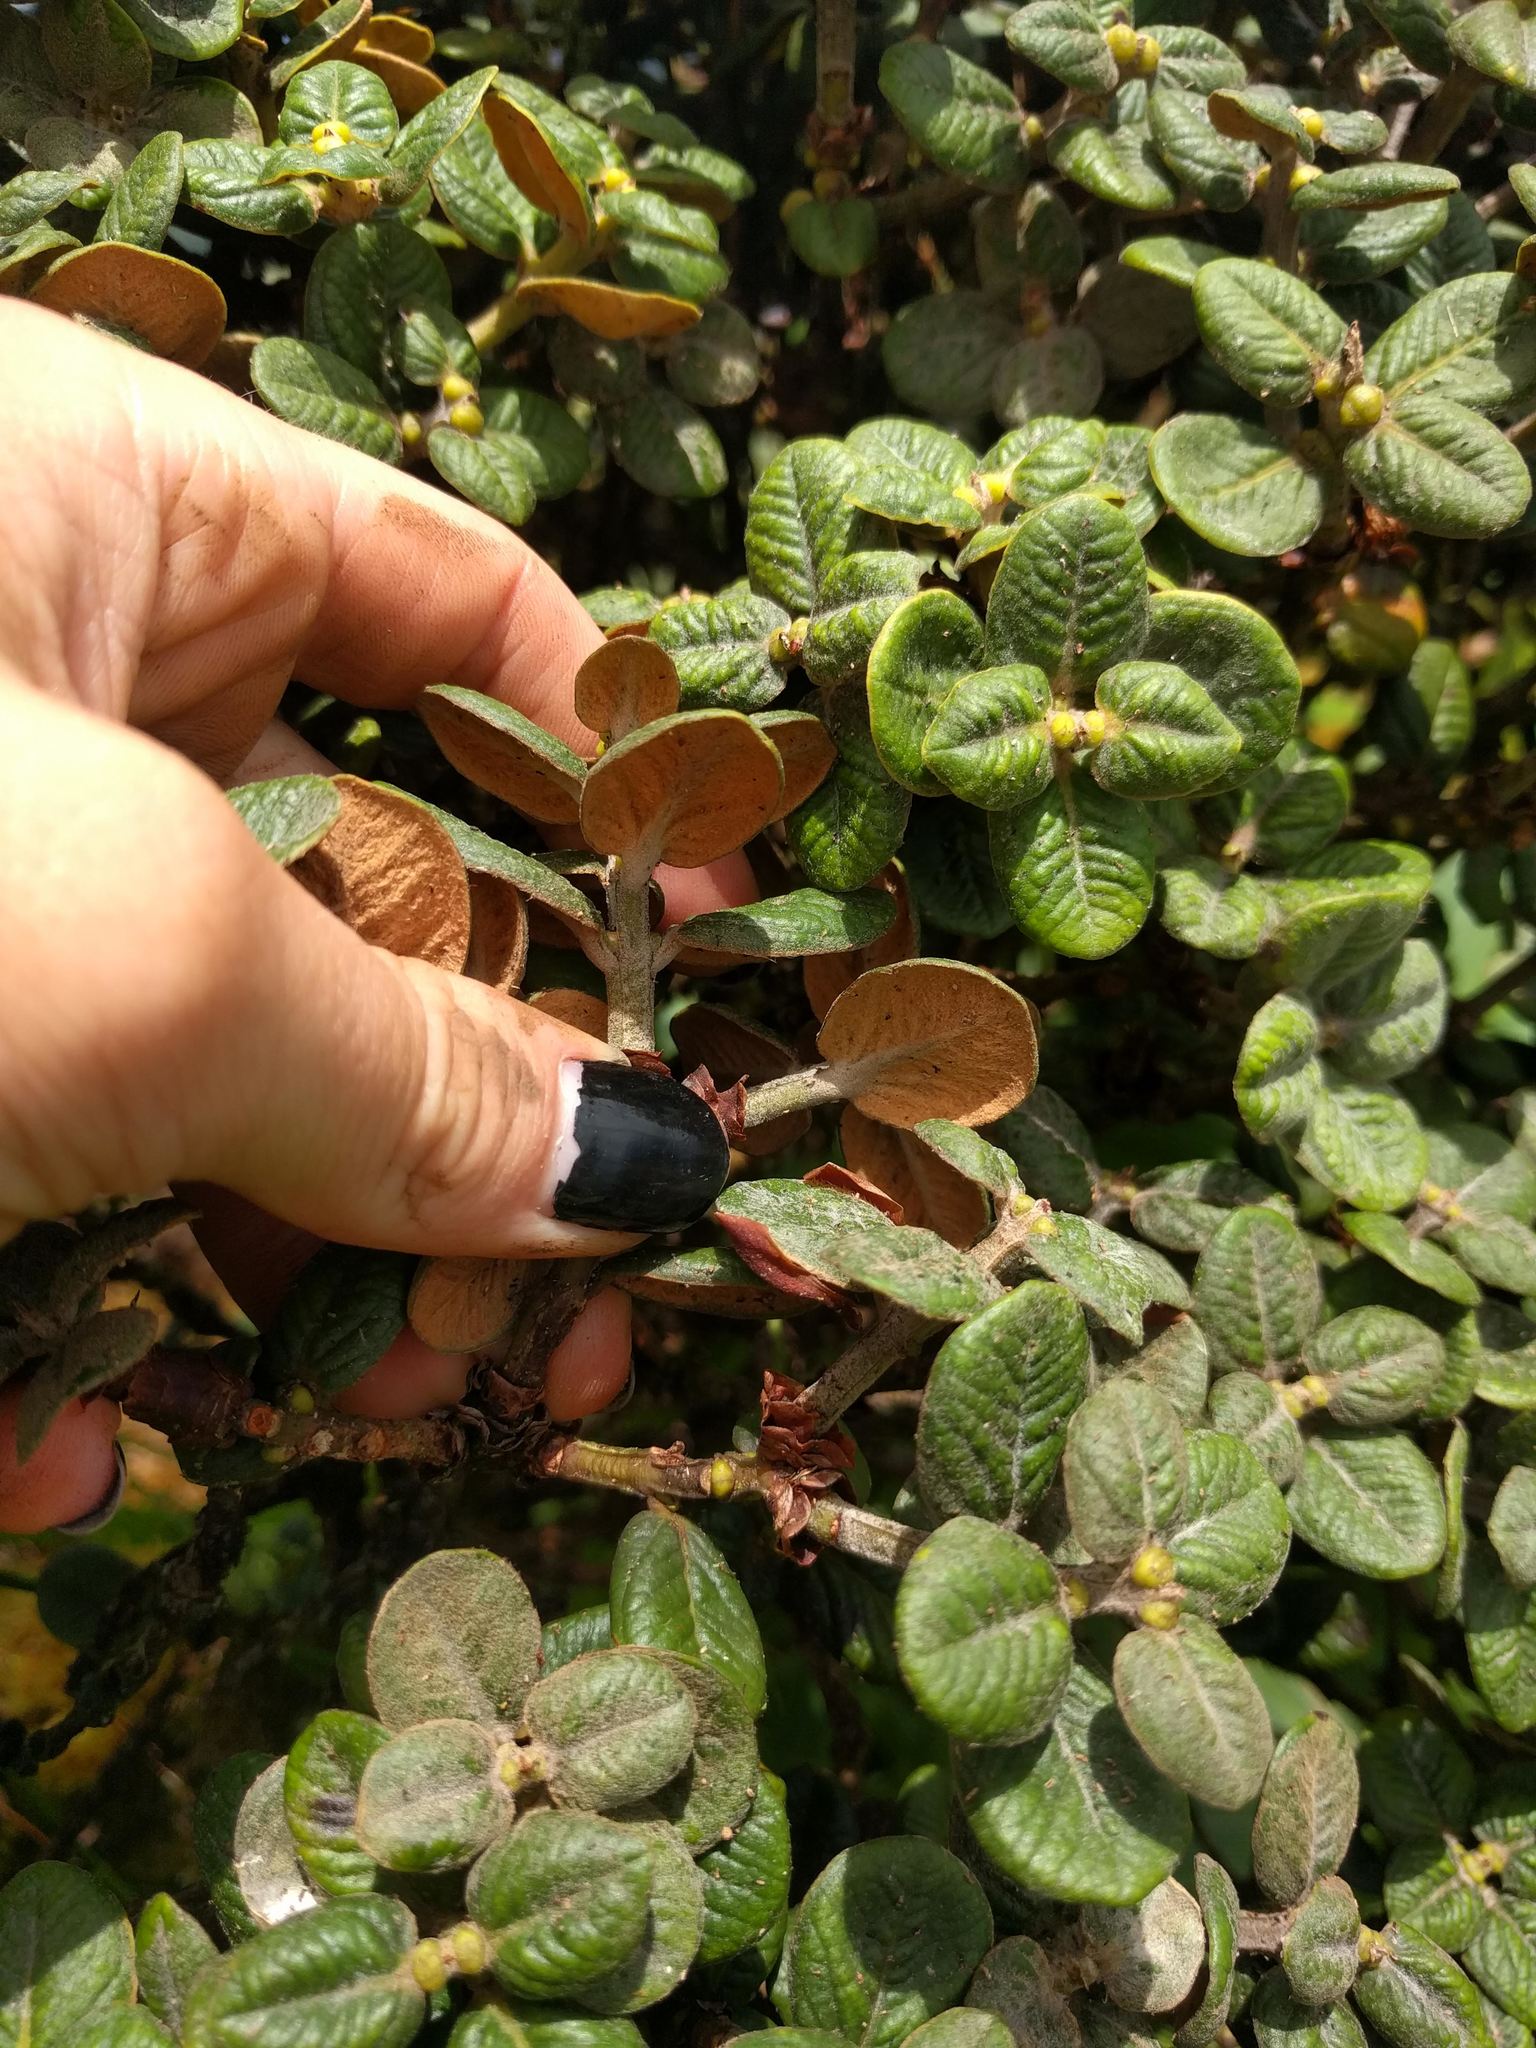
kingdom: Plantae
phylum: Tracheophyta
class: Magnoliopsida
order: Myrtales
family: Myrtaceae
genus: Metrosideros
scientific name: Metrosideros rugosa
